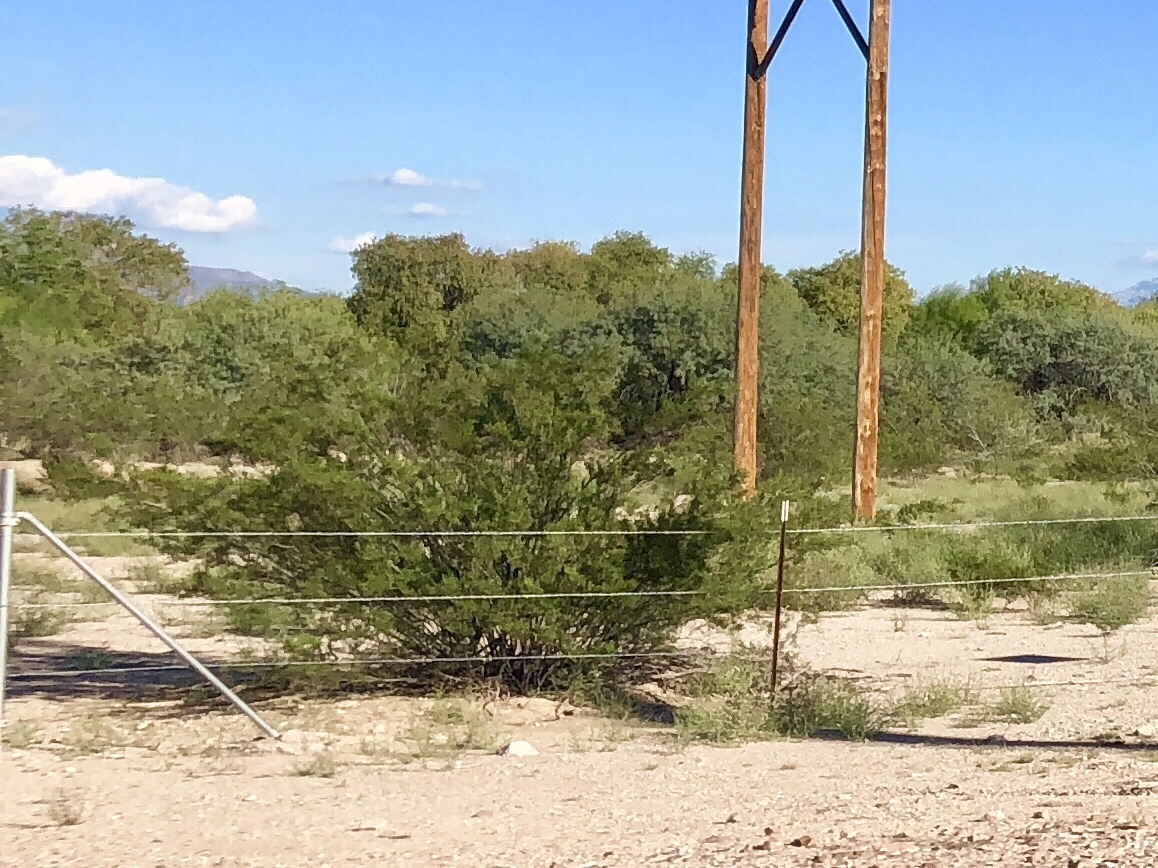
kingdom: Plantae
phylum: Tracheophyta
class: Magnoliopsida
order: Zygophyllales
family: Zygophyllaceae
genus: Larrea
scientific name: Larrea tridentata
